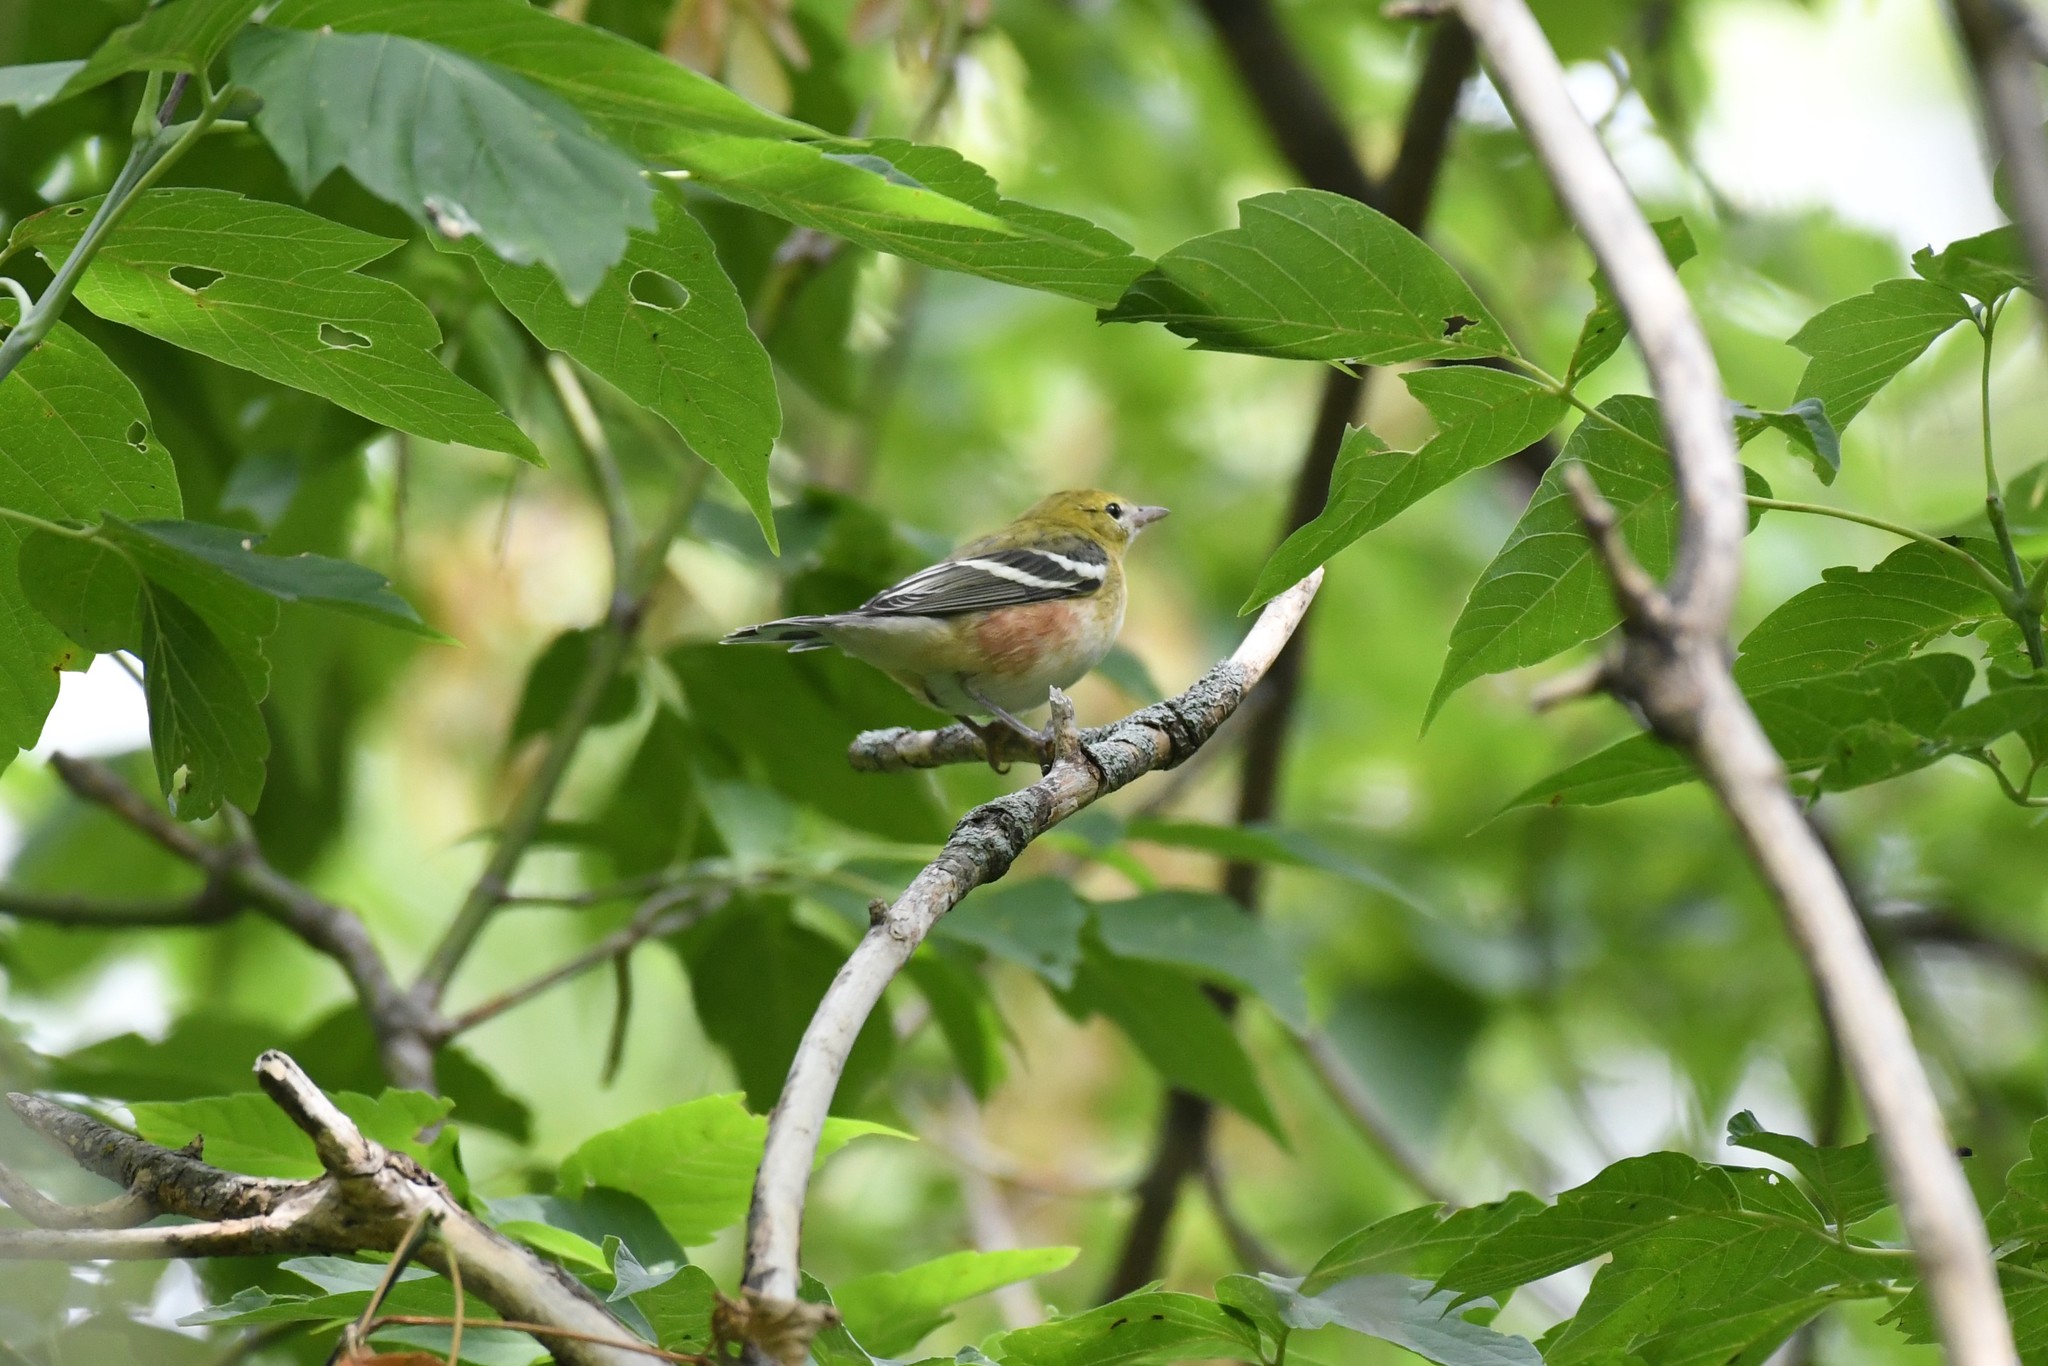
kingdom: Animalia
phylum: Chordata
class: Aves
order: Passeriformes
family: Parulidae
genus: Setophaga
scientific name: Setophaga castanea
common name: Bay-breasted warbler
